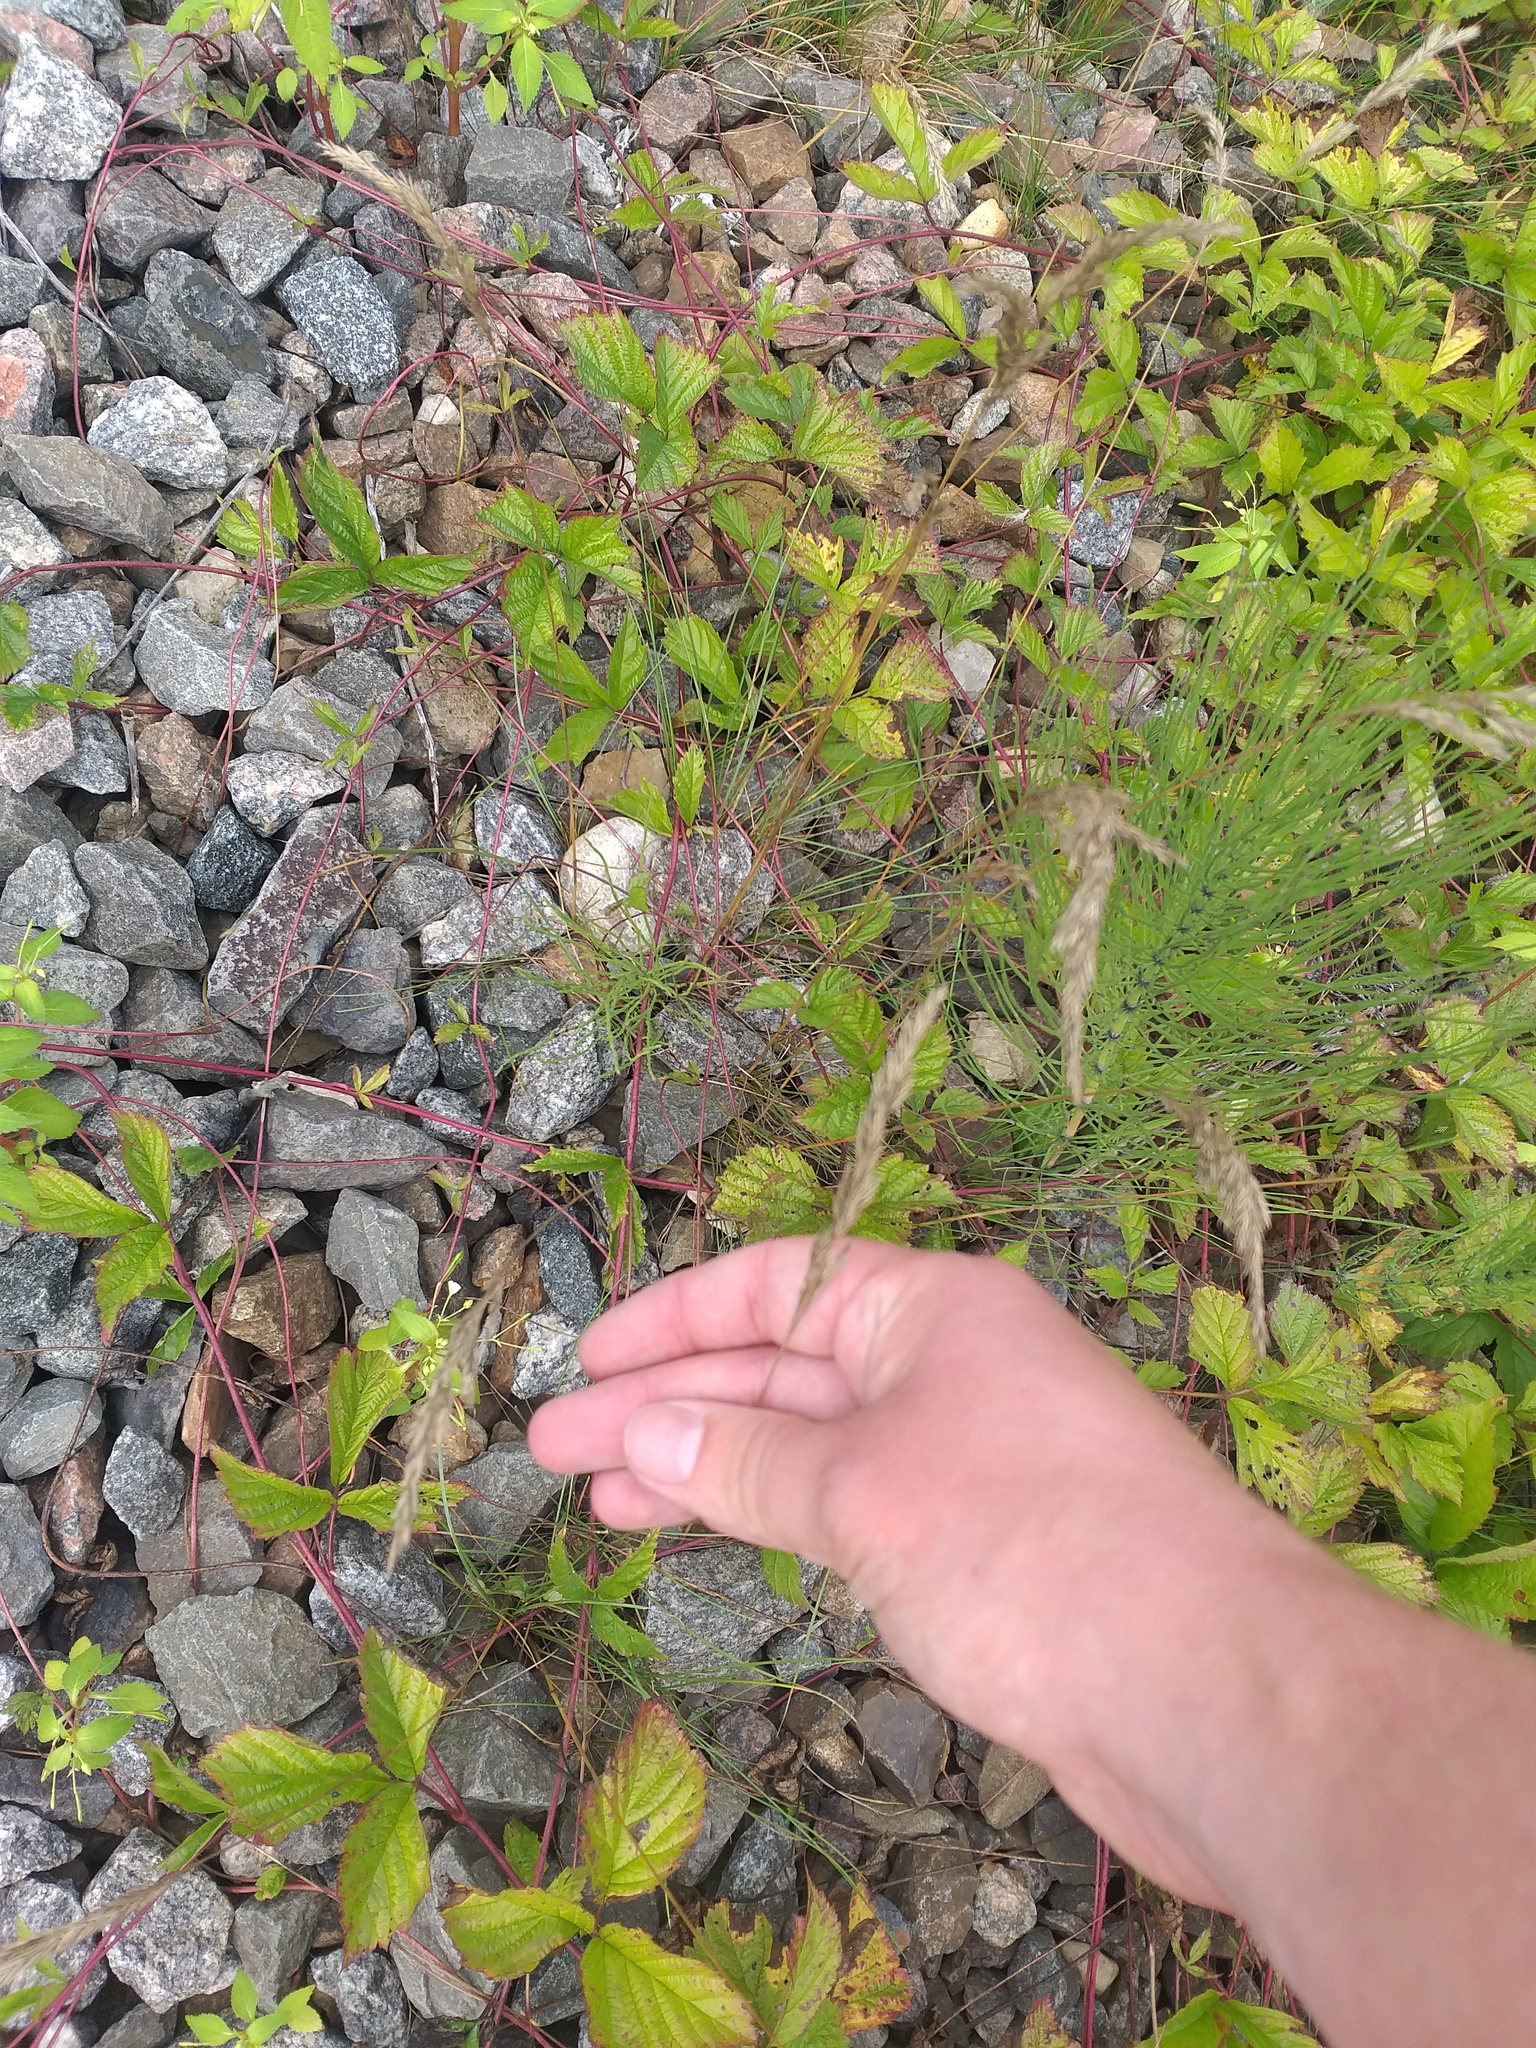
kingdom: Plantae
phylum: Tracheophyta
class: Liliopsida
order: Poales
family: Poaceae
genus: Festuca
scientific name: Festuca rubra
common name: Red fescue
